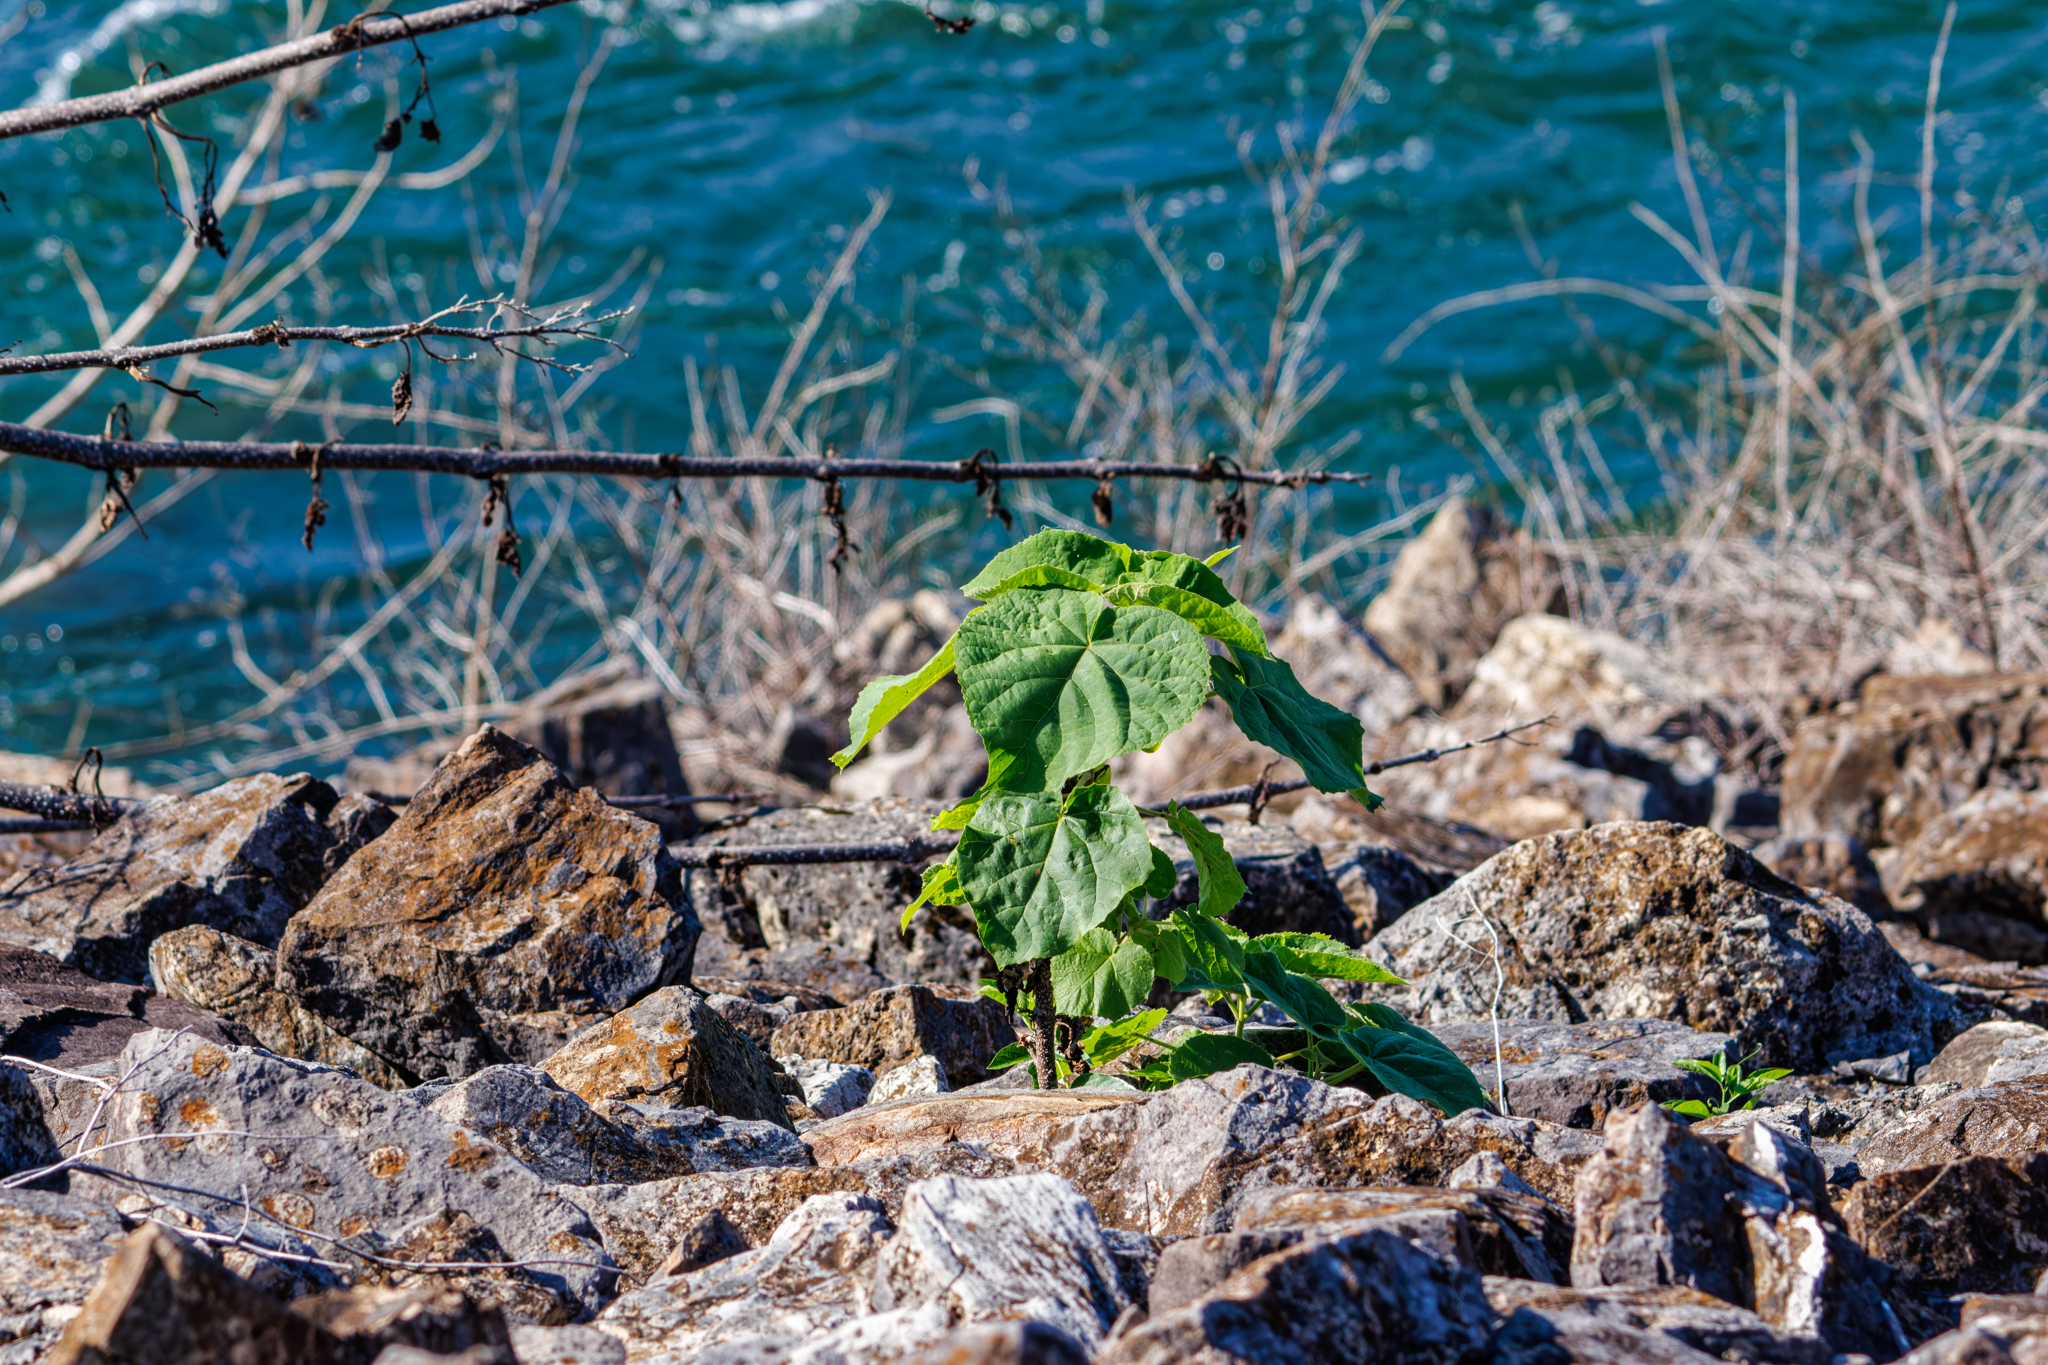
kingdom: Plantae
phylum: Tracheophyta
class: Magnoliopsida
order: Lamiales
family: Paulowniaceae
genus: Paulownia
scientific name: Paulownia tomentosa
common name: Foxglove-tree
